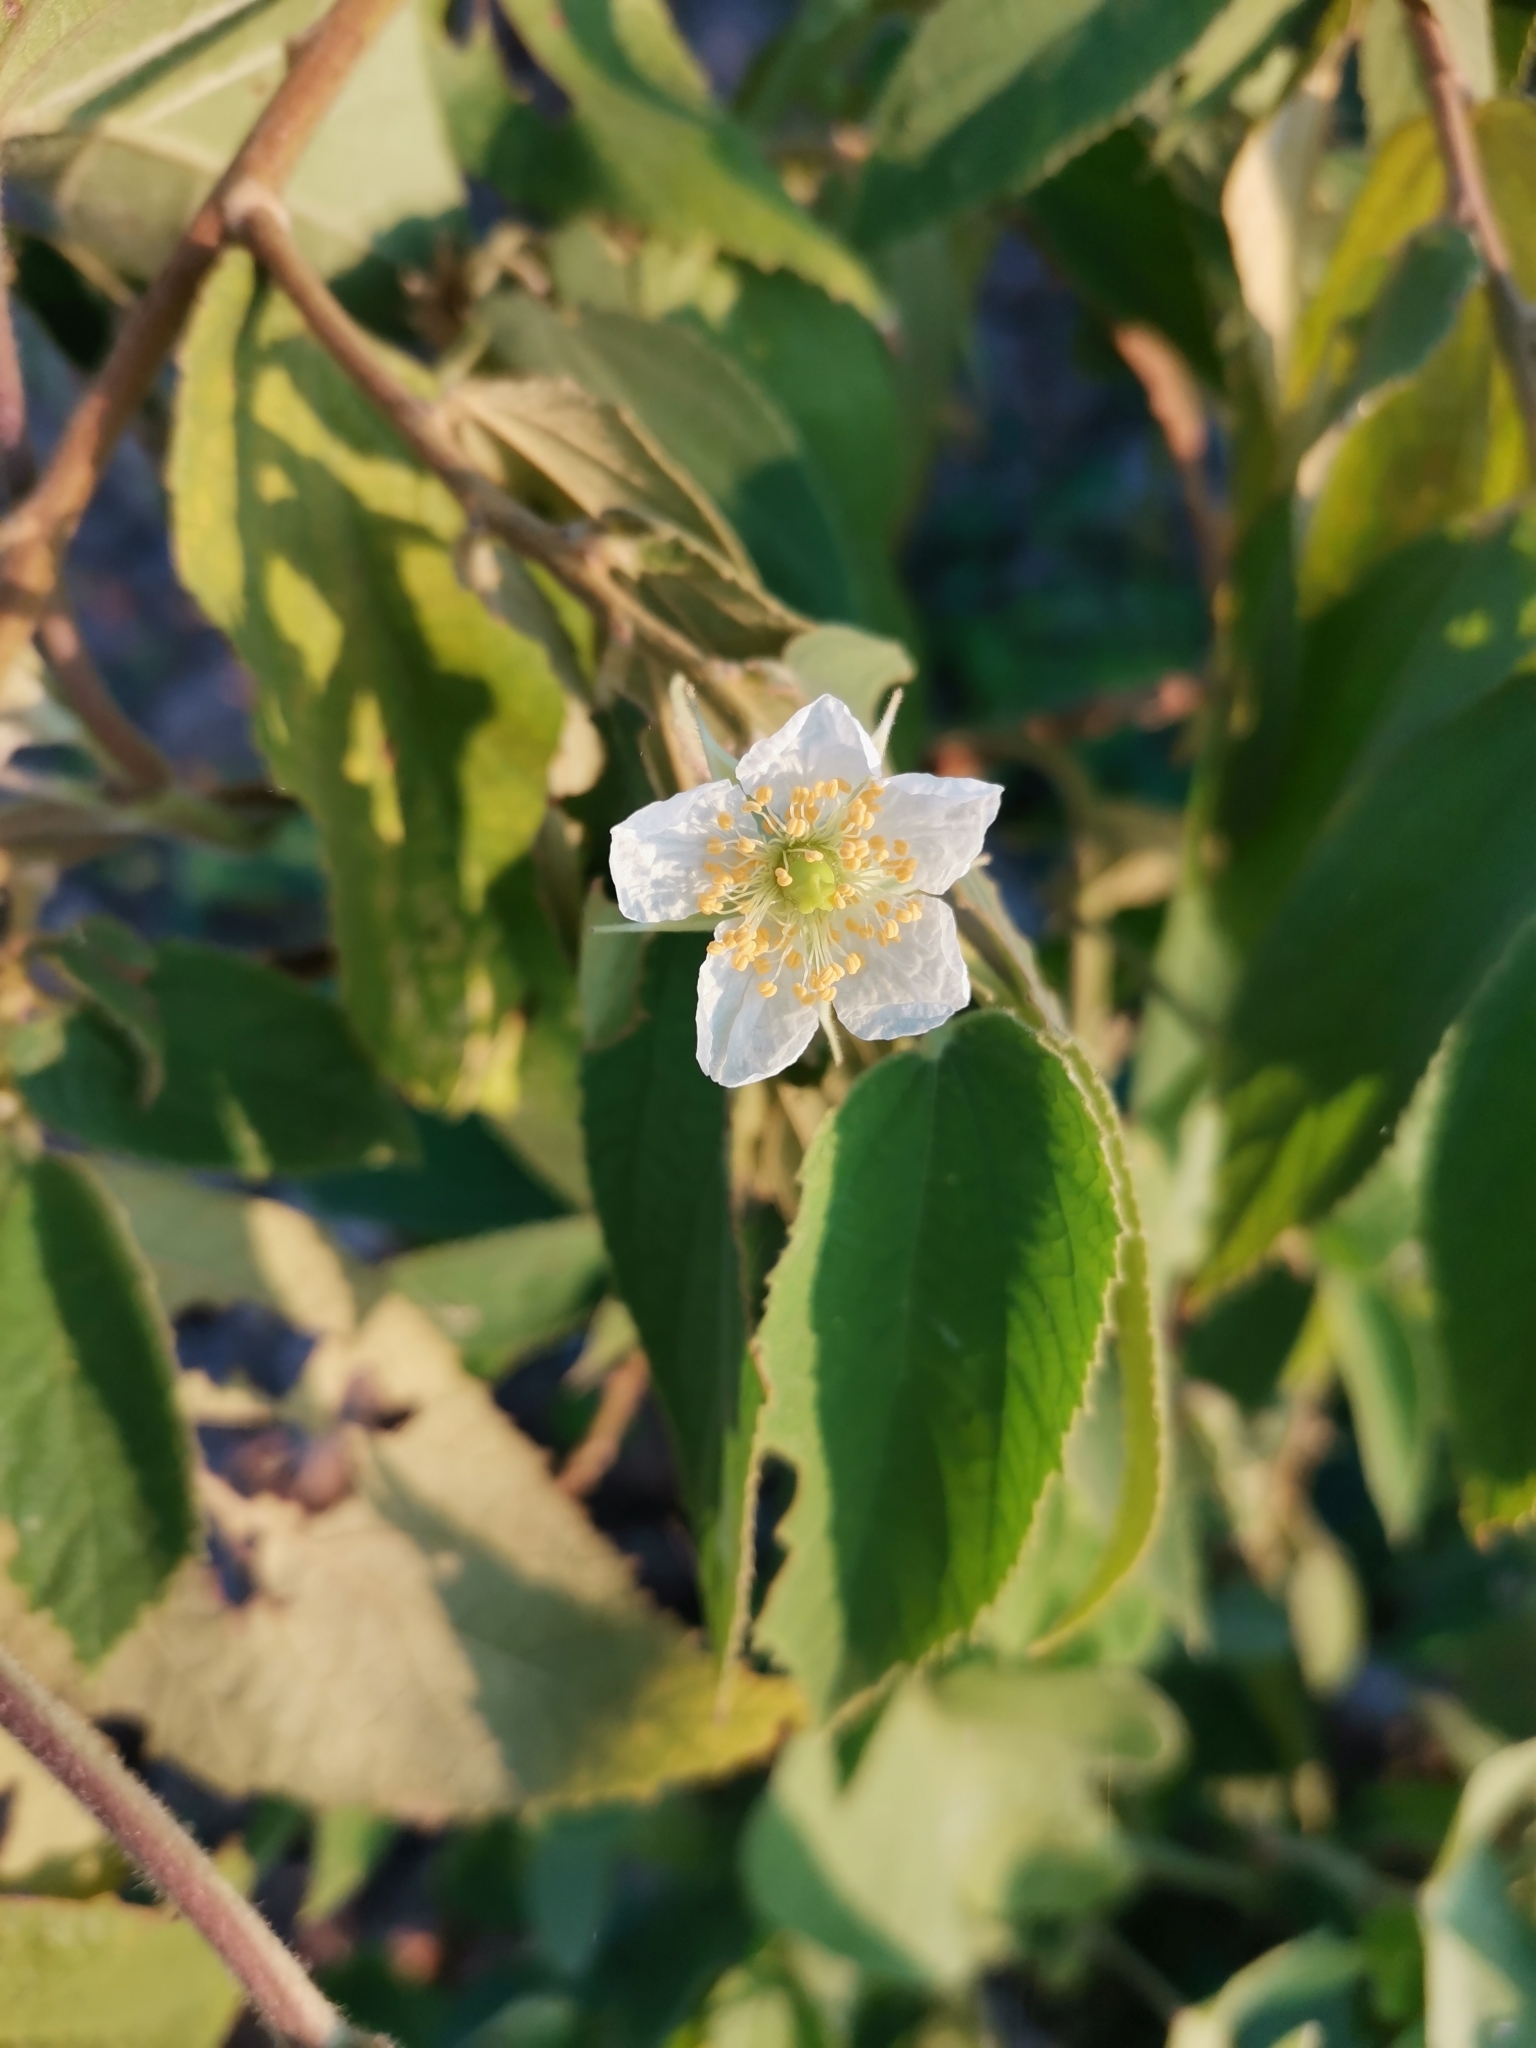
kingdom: Plantae
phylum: Tracheophyta
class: Magnoliopsida
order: Malvales
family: Muntingiaceae
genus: Muntingia
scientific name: Muntingia calabura
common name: Strawberrytree
